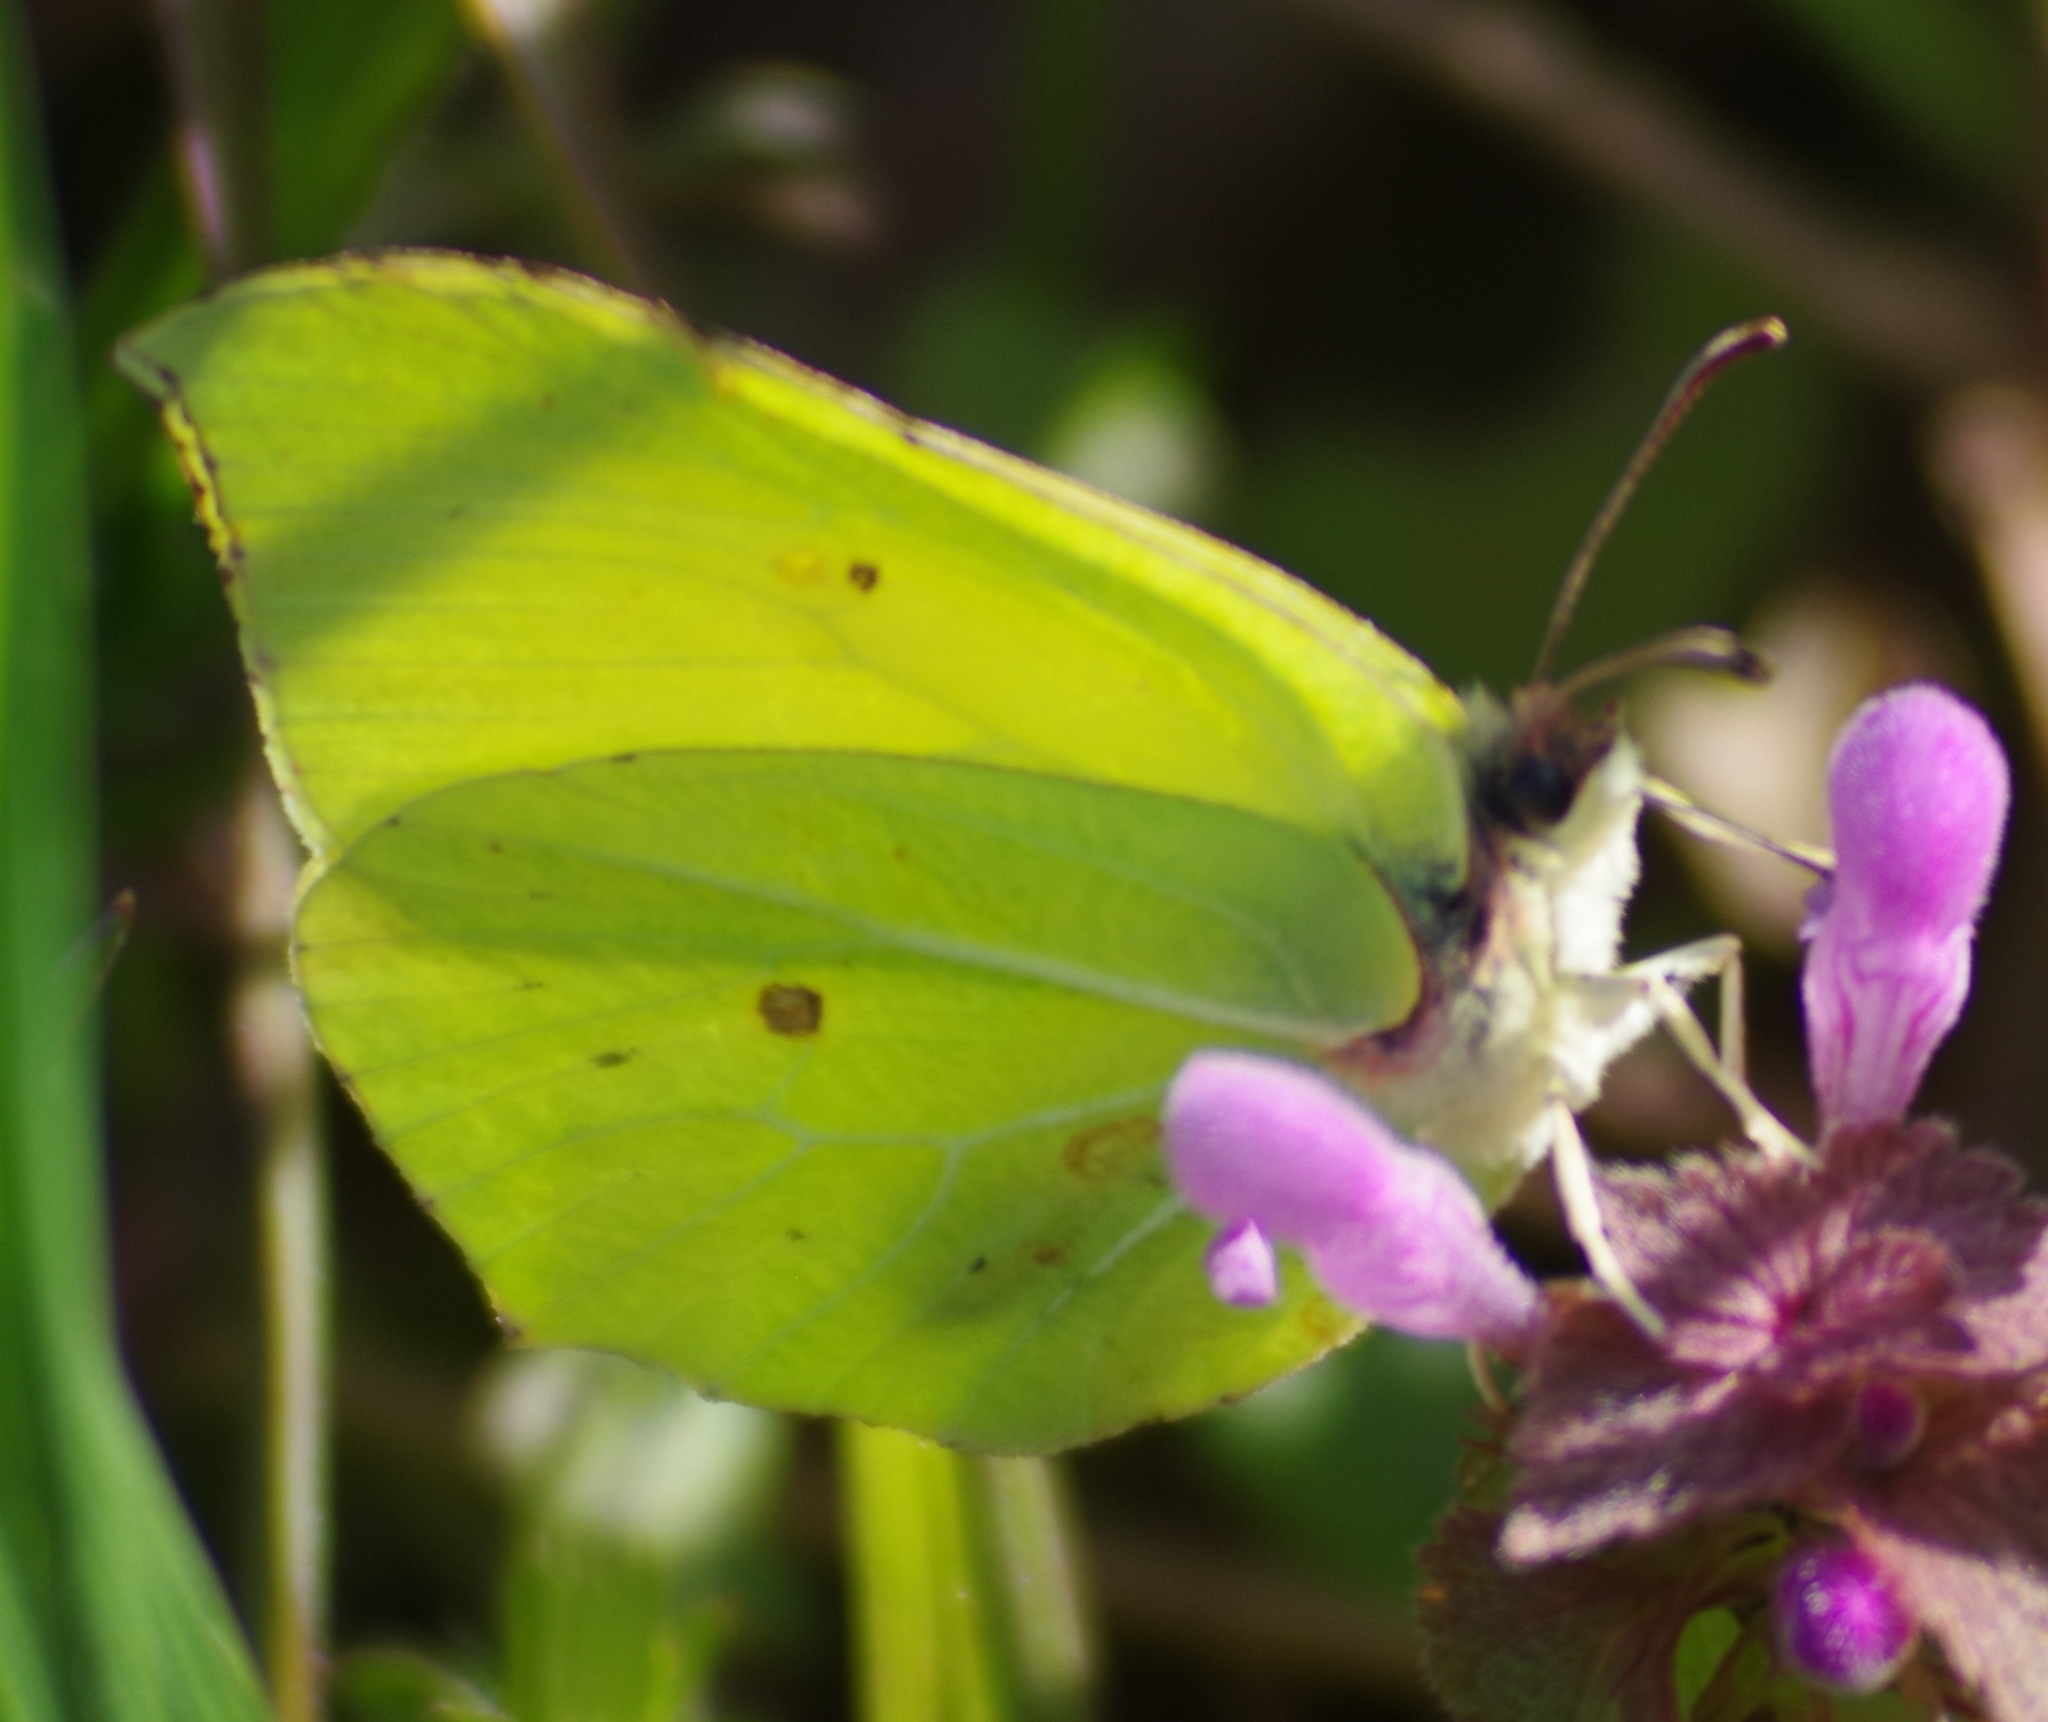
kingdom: Animalia
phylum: Arthropoda
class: Insecta
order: Lepidoptera
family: Pieridae
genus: Gonepteryx
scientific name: Gonepteryx rhamni
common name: Brimstone
